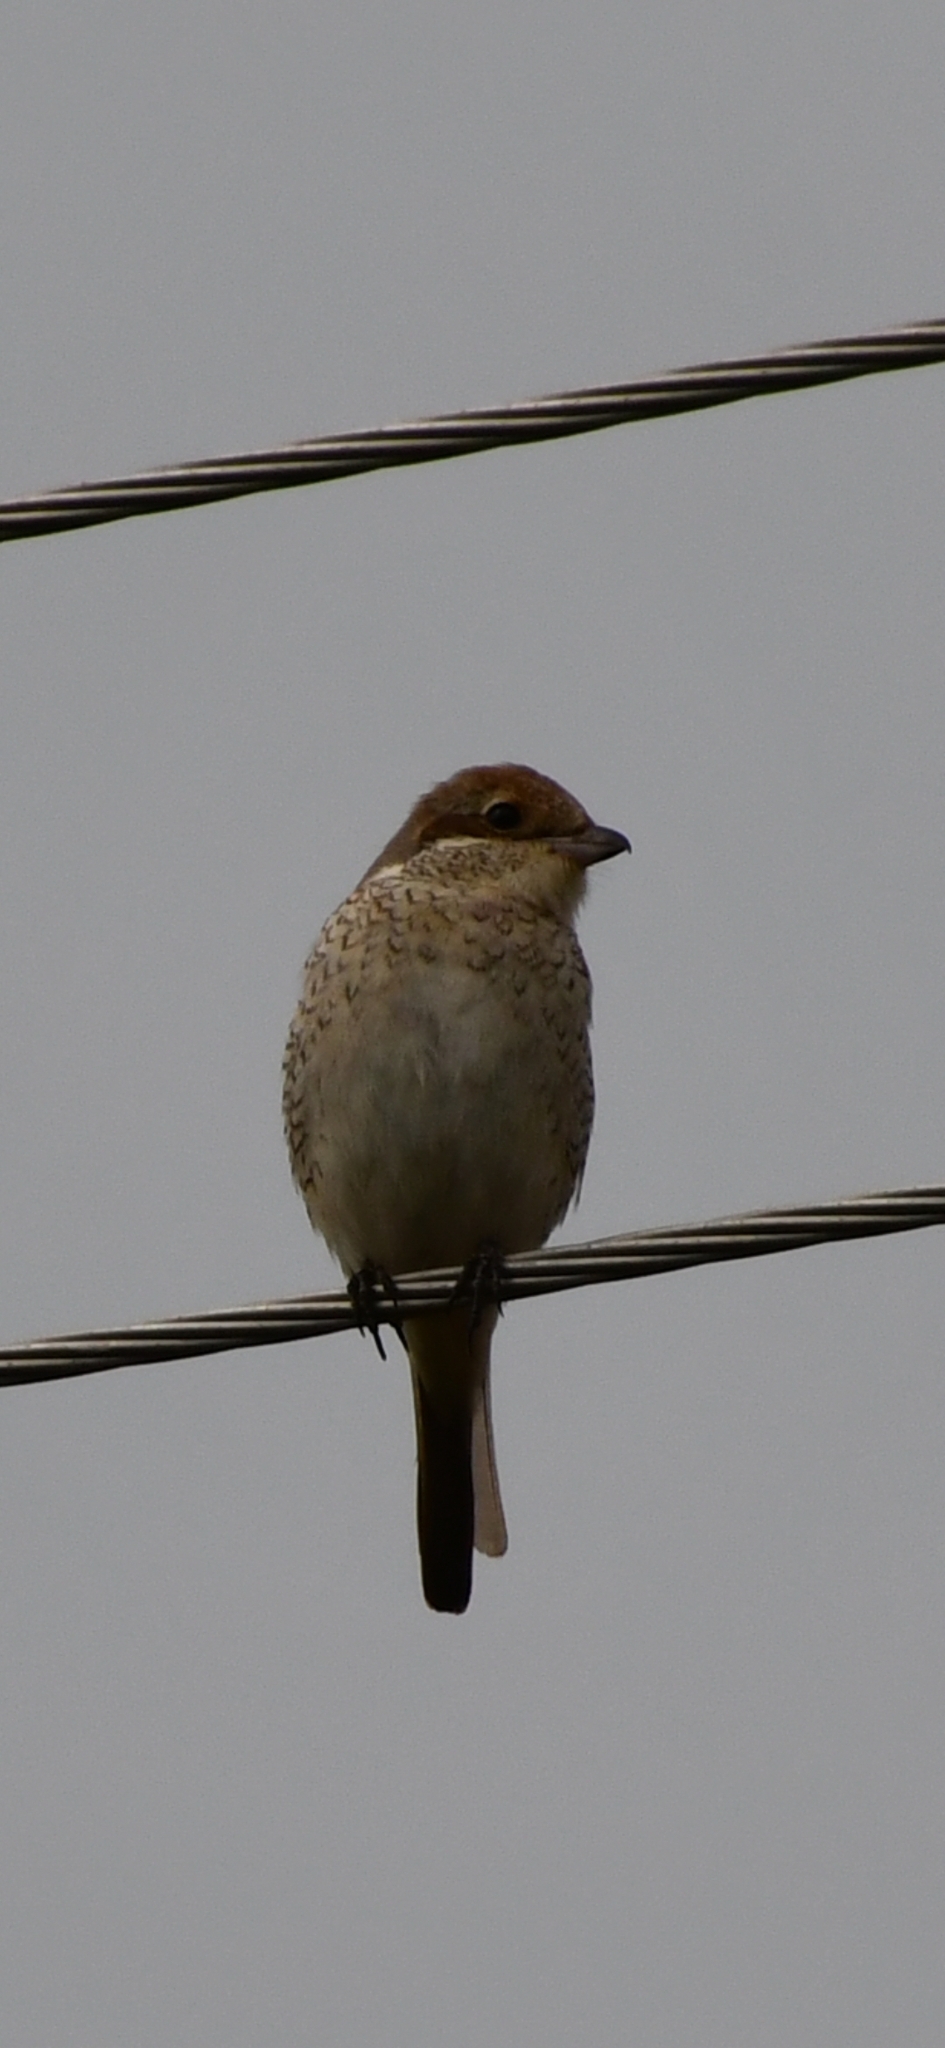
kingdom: Animalia
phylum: Chordata
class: Aves
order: Passeriformes
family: Laniidae
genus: Lanius
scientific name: Lanius collurio
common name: Red-backed shrike
